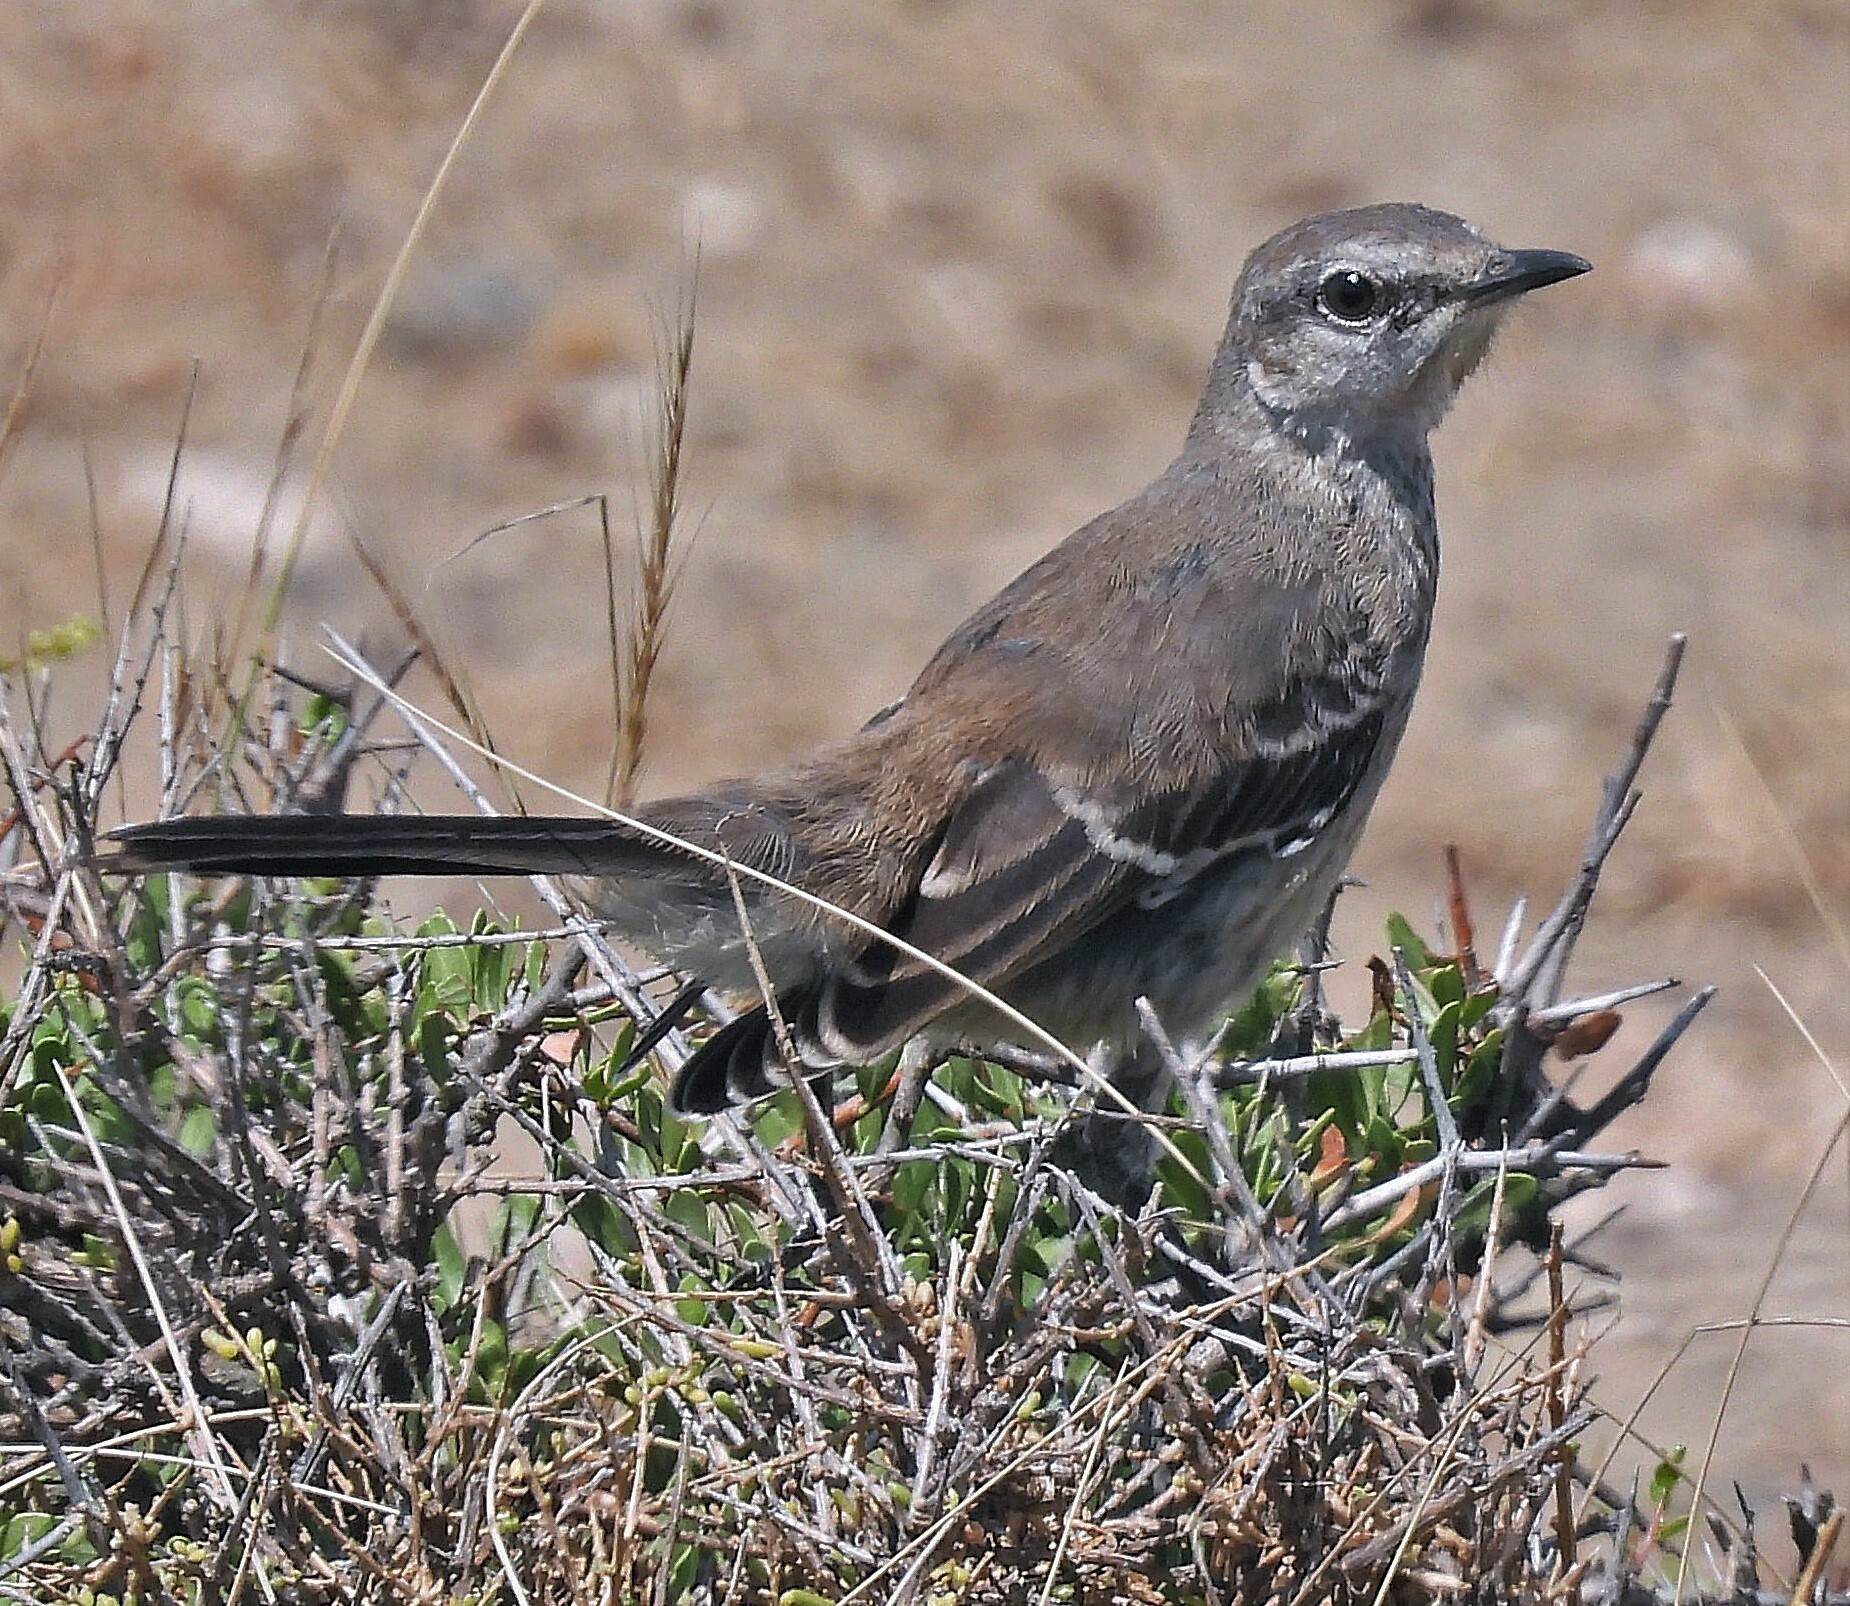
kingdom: Animalia
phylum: Chordata
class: Aves
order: Passeriformes
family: Mimidae
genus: Mimus
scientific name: Mimus patagonicus
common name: Patagonian mockingbird
